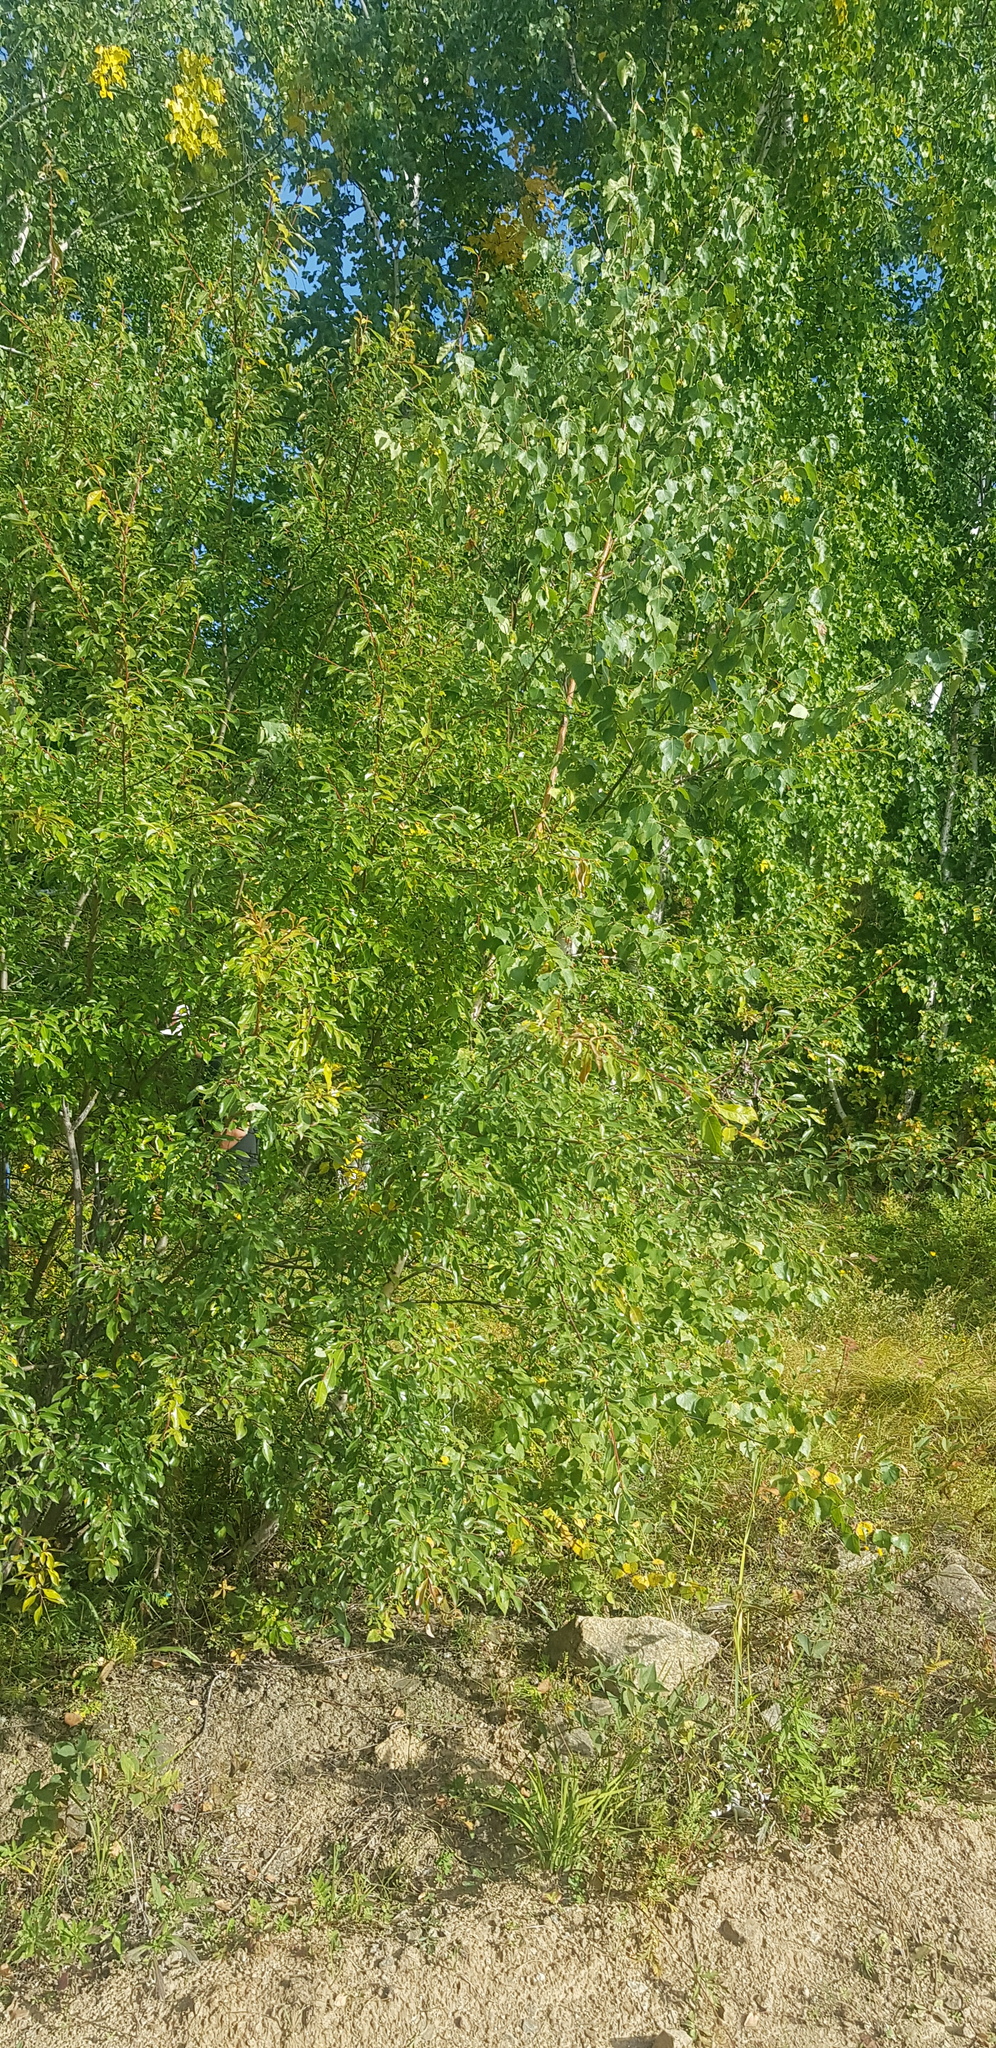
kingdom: Plantae
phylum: Tracheophyta
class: Magnoliopsida
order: Rosales
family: Rosaceae
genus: Malus
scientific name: Malus baccata
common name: Siberian crab
